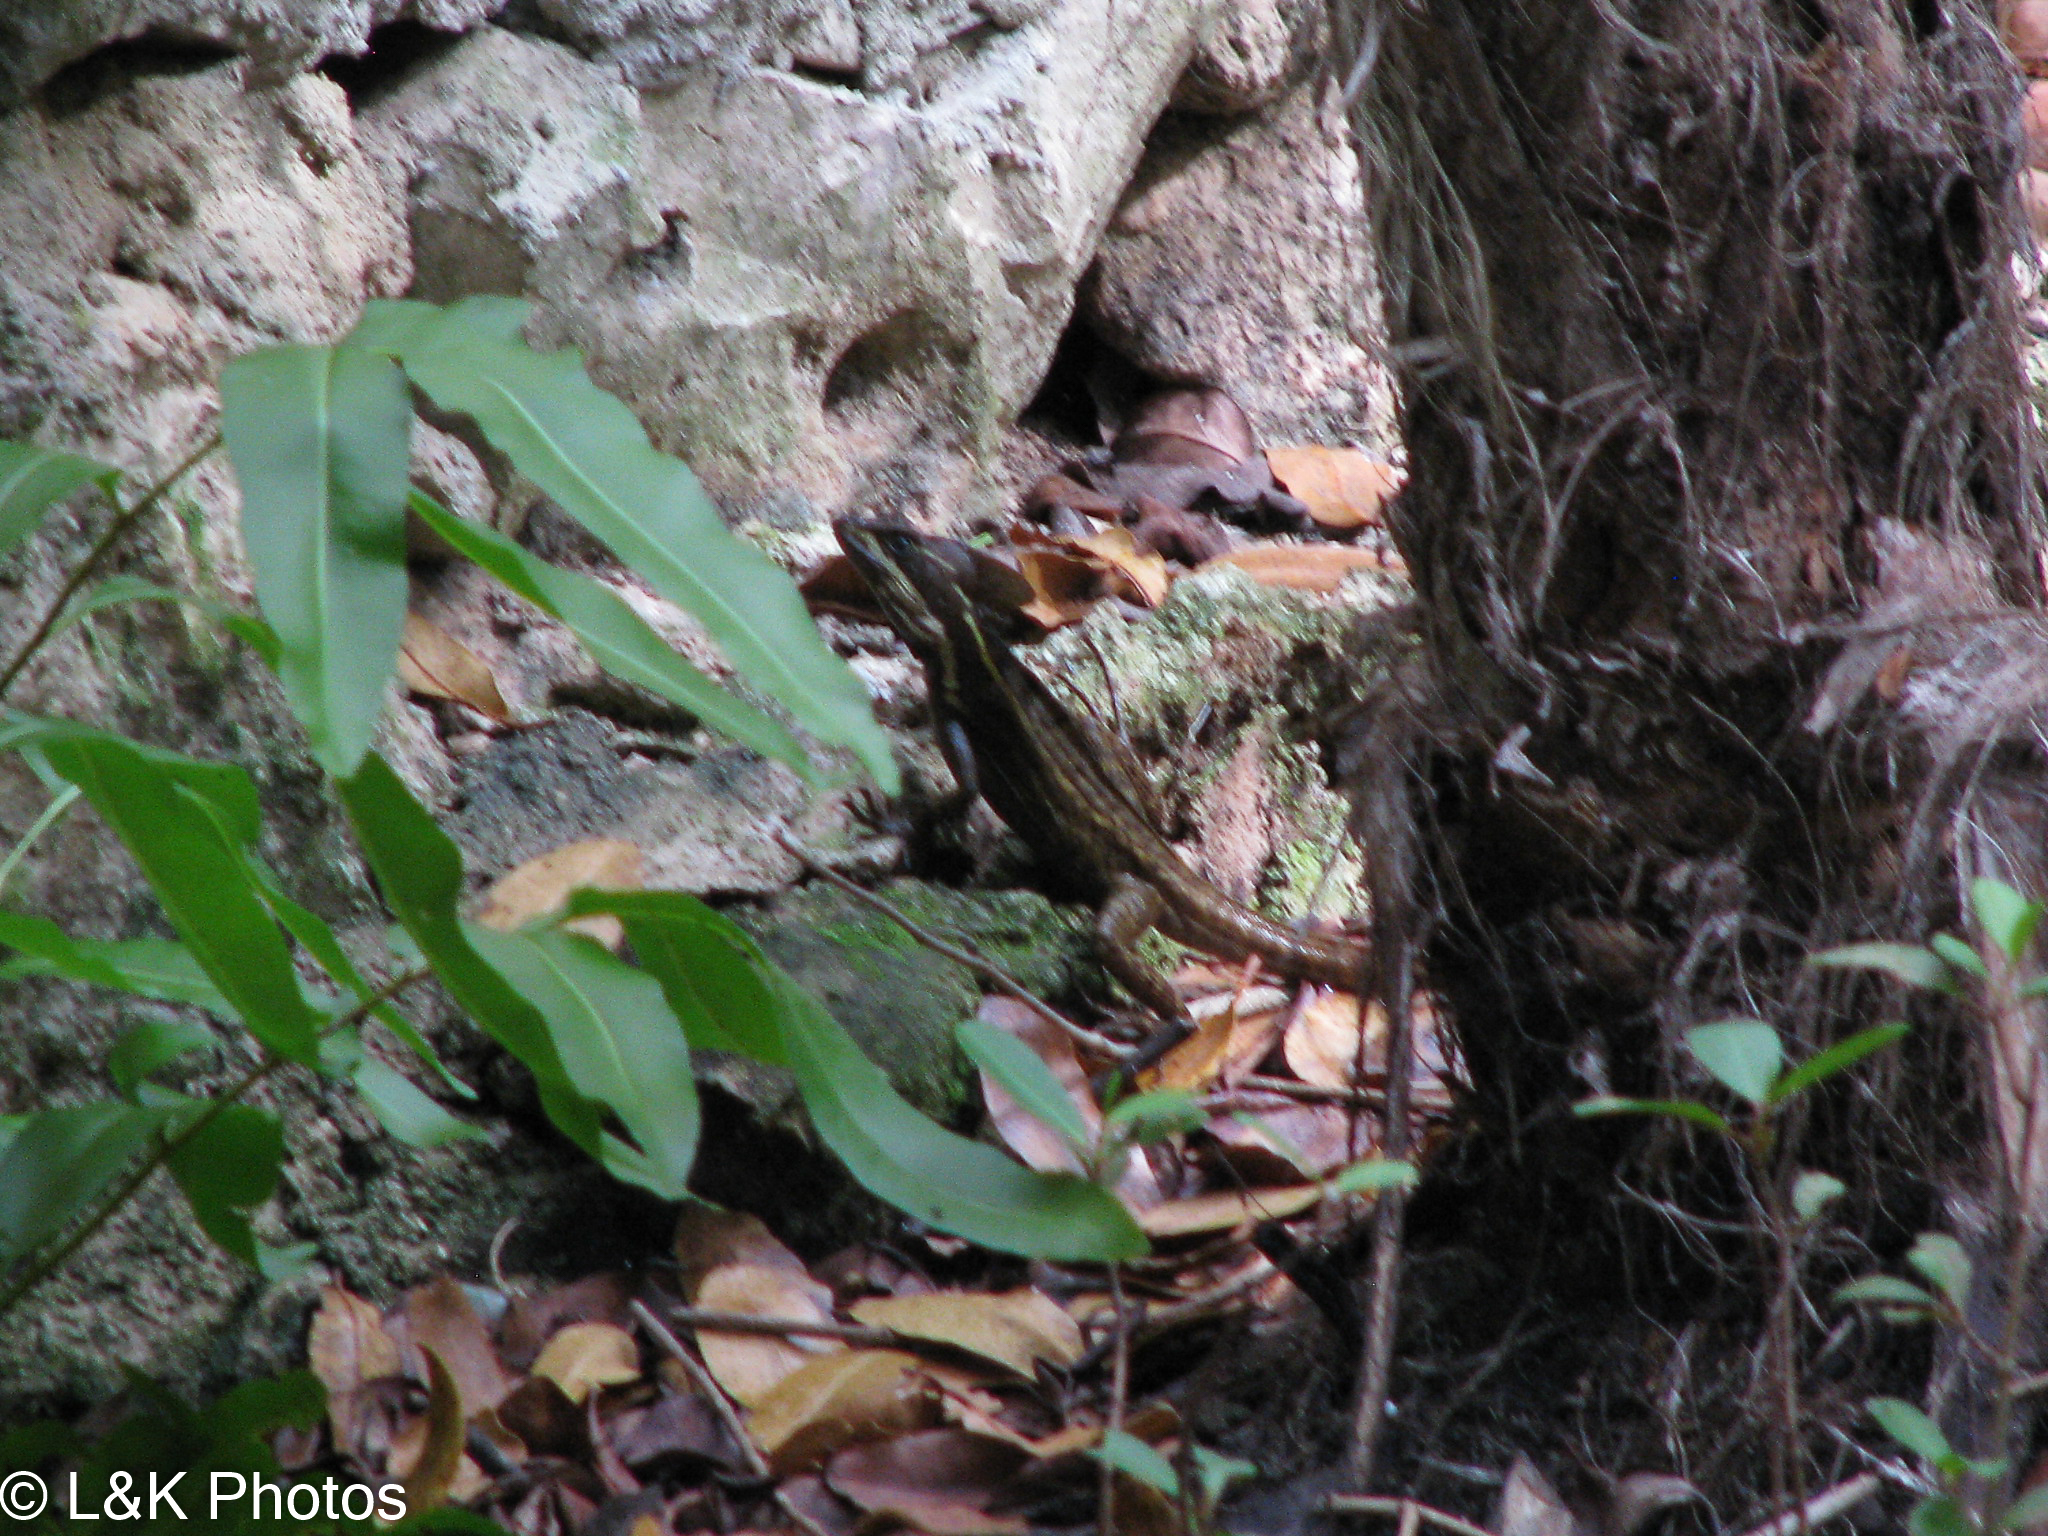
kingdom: Animalia
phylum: Chordata
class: Squamata
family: Corytophanidae
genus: Basiliscus
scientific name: Basiliscus vittatus
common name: Brown basilisk
